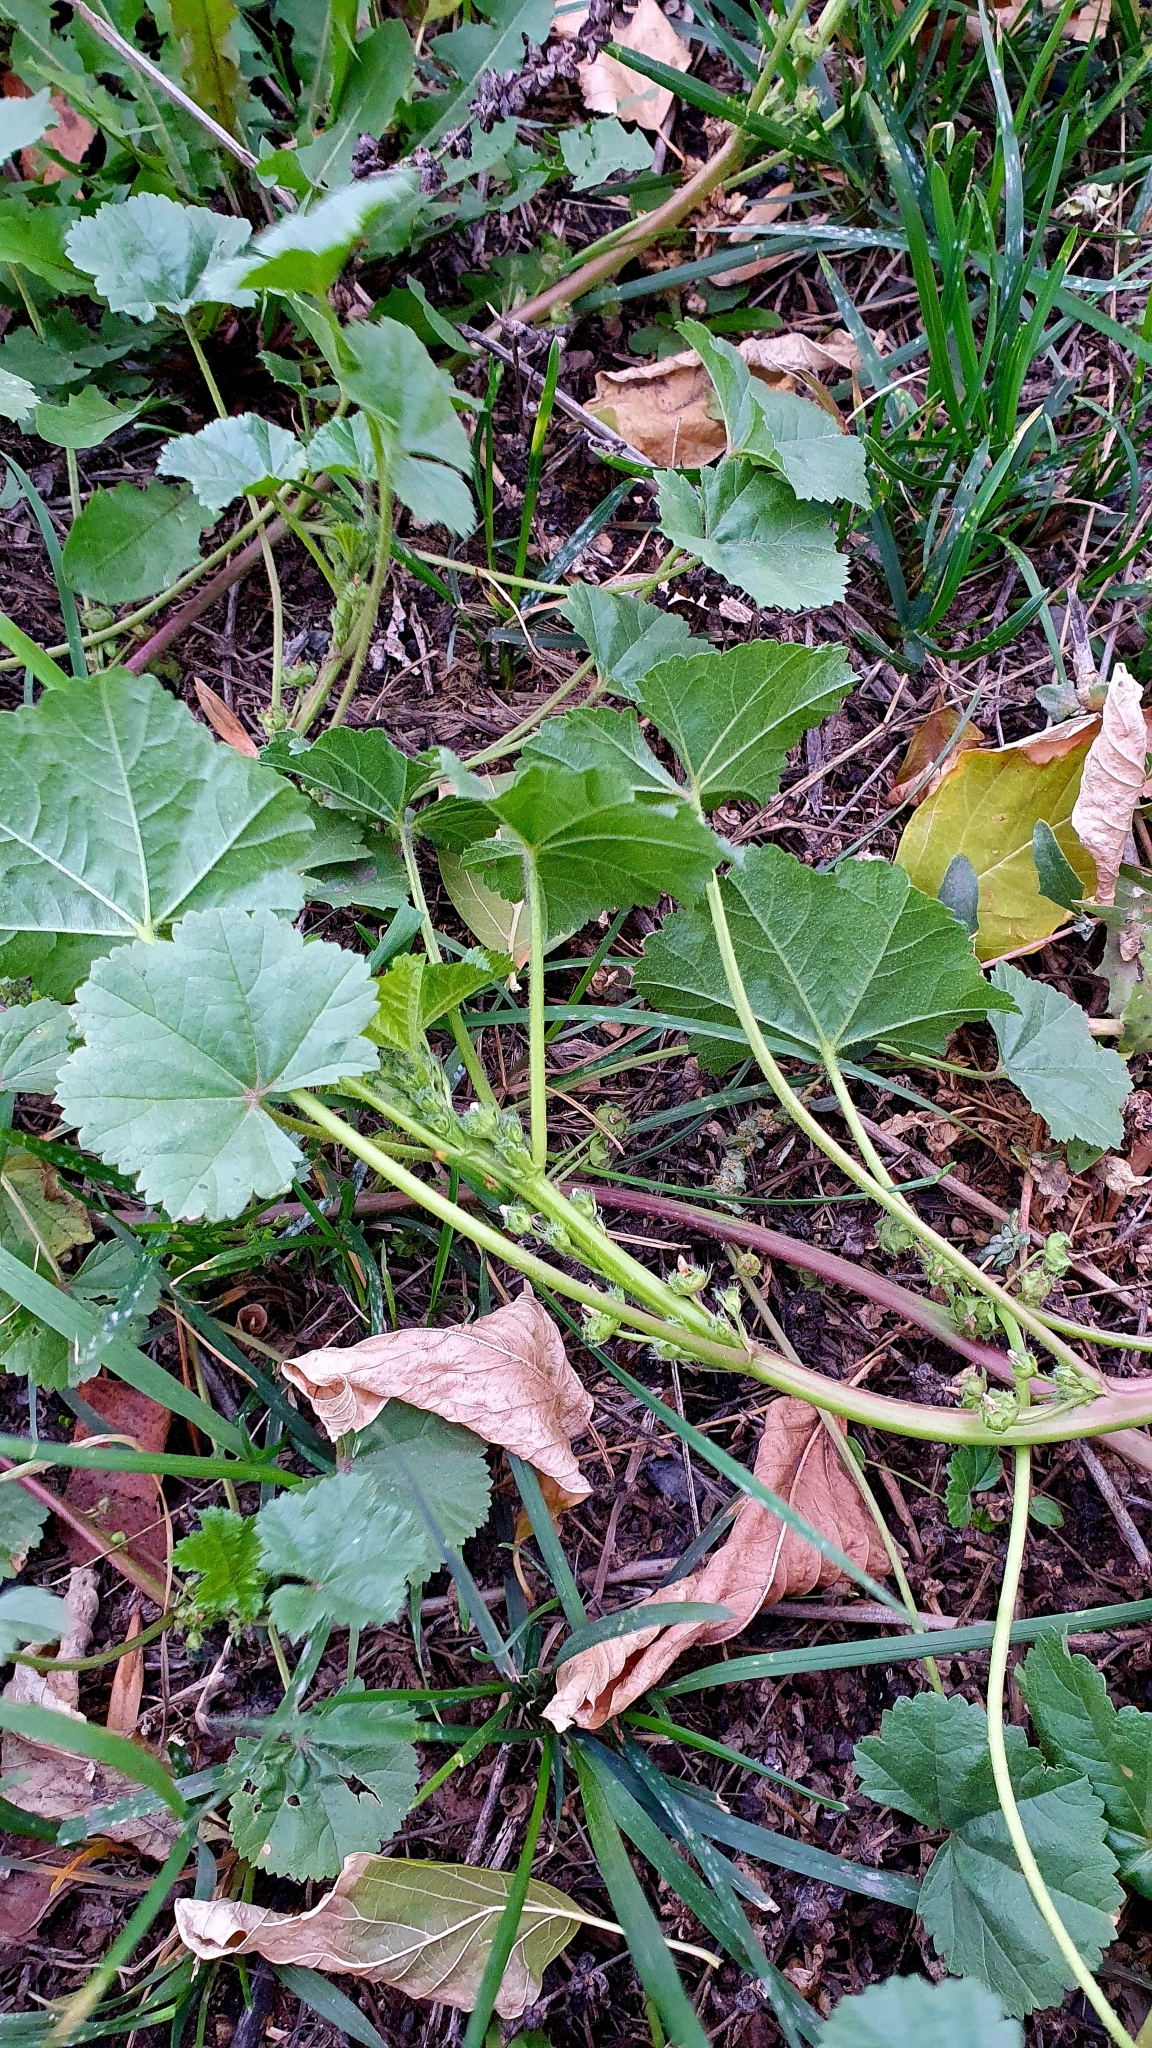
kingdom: Plantae
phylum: Tracheophyta
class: Magnoliopsida
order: Malvales
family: Malvaceae
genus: Malva
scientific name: Malva pusilla
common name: Small mallow
